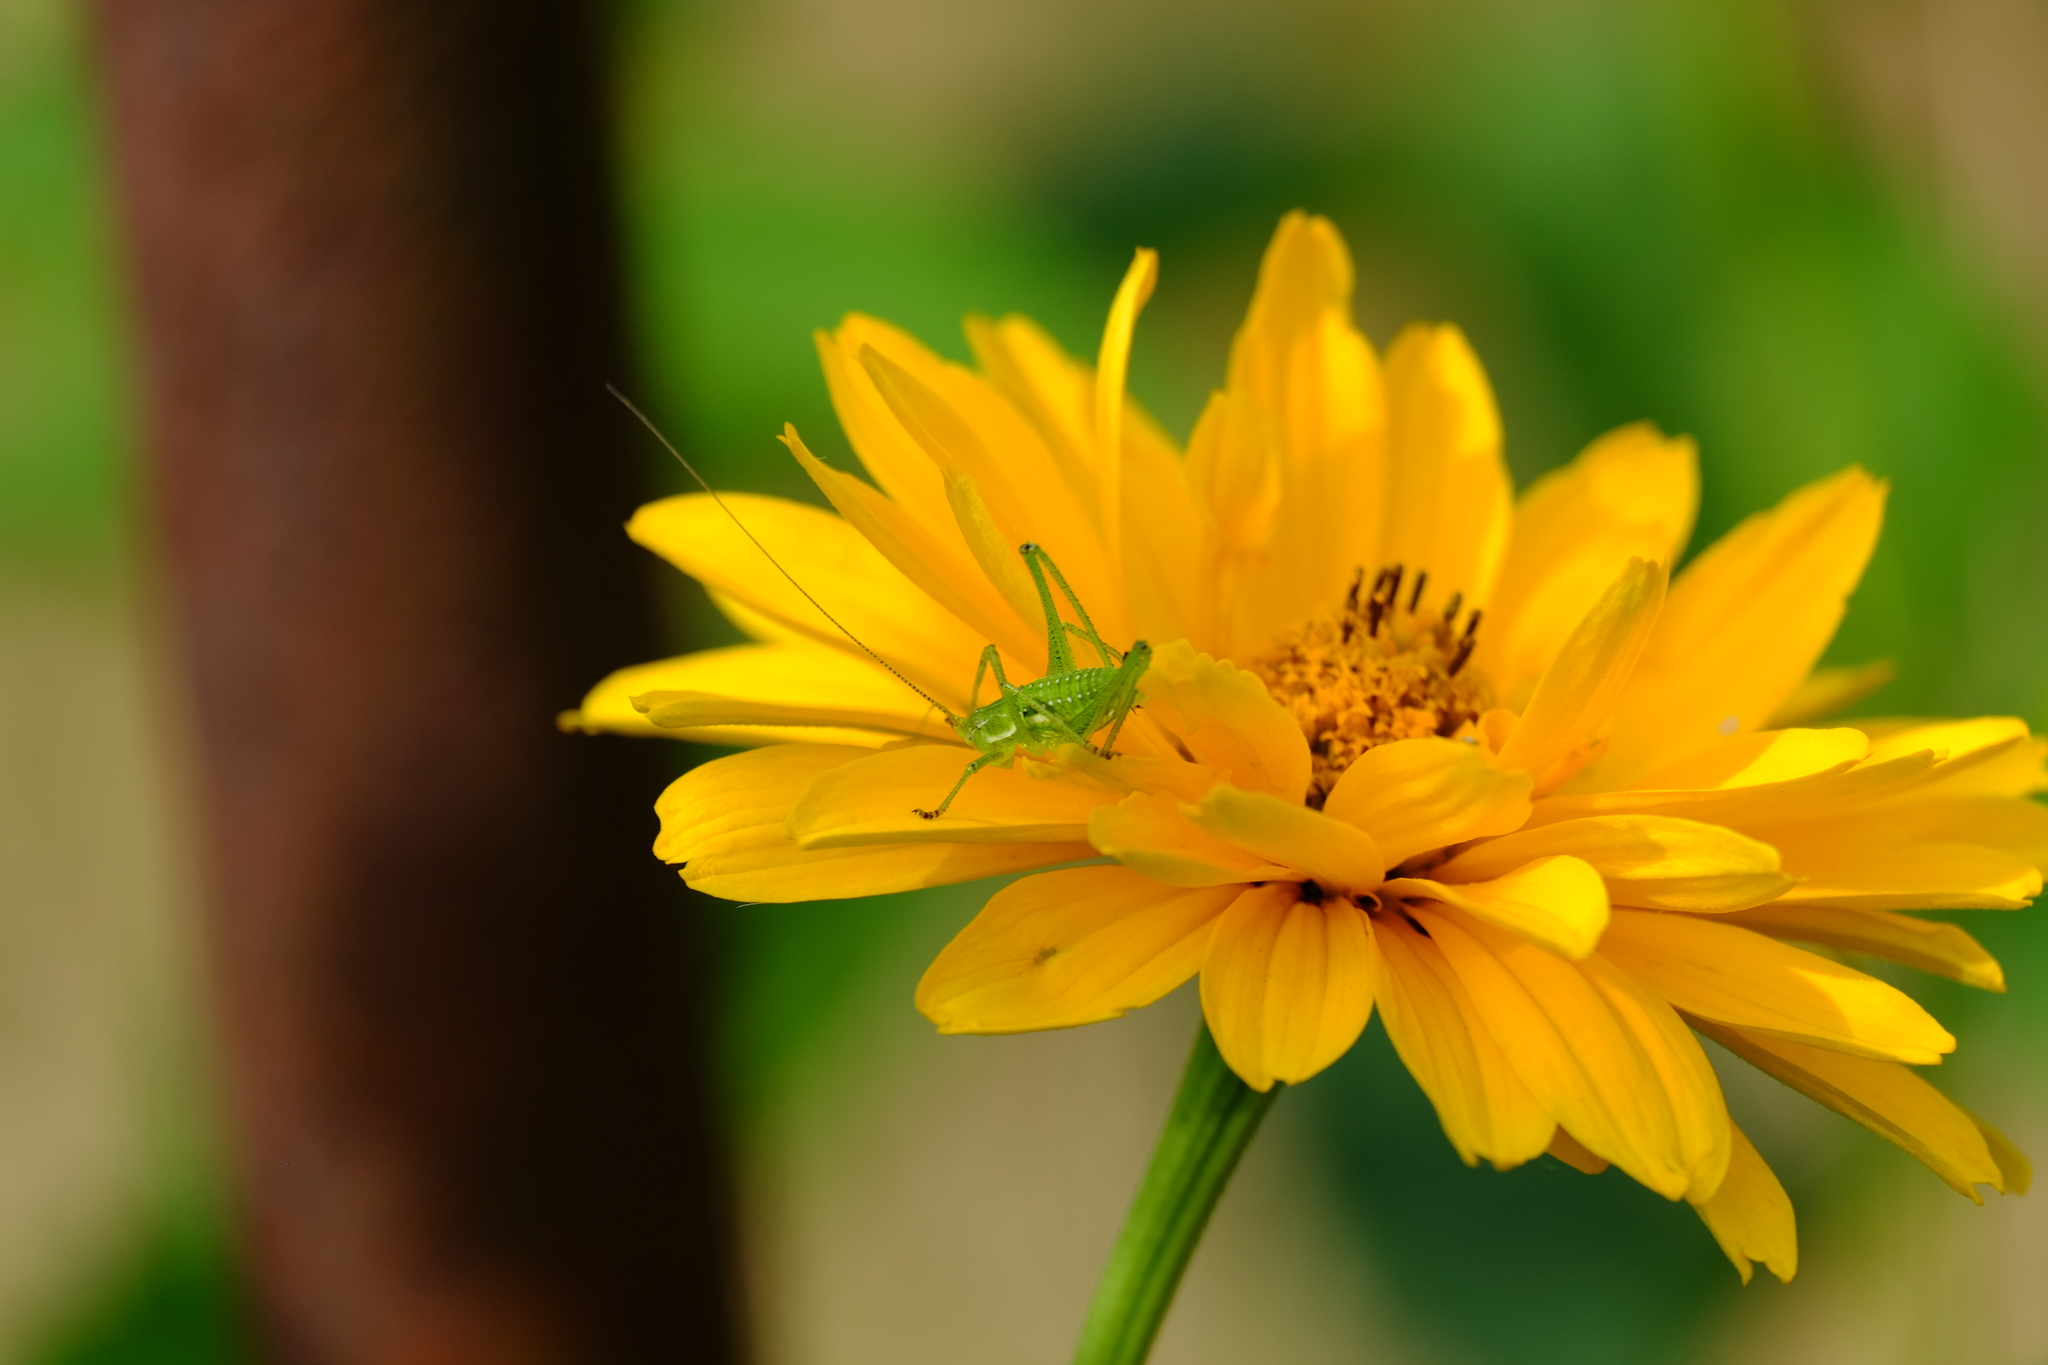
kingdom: Animalia
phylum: Arthropoda
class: Insecta
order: Orthoptera
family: Tettigoniidae
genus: Leptophyes
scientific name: Leptophyes albovittata
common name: Striped bush-cricket
